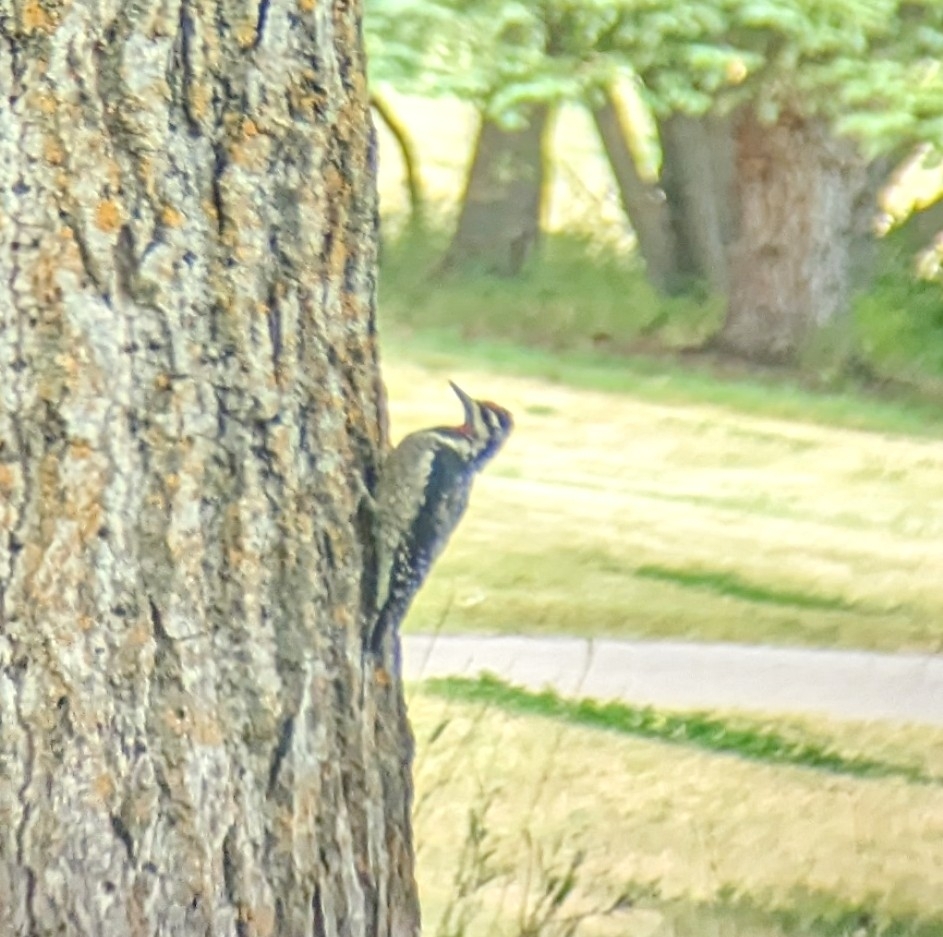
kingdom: Animalia
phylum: Chordata
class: Aves
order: Piciformes
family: Picidae
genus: Sphyrapicus
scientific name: Sphyrapicus nuchalis
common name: Red-naped sapsucker
